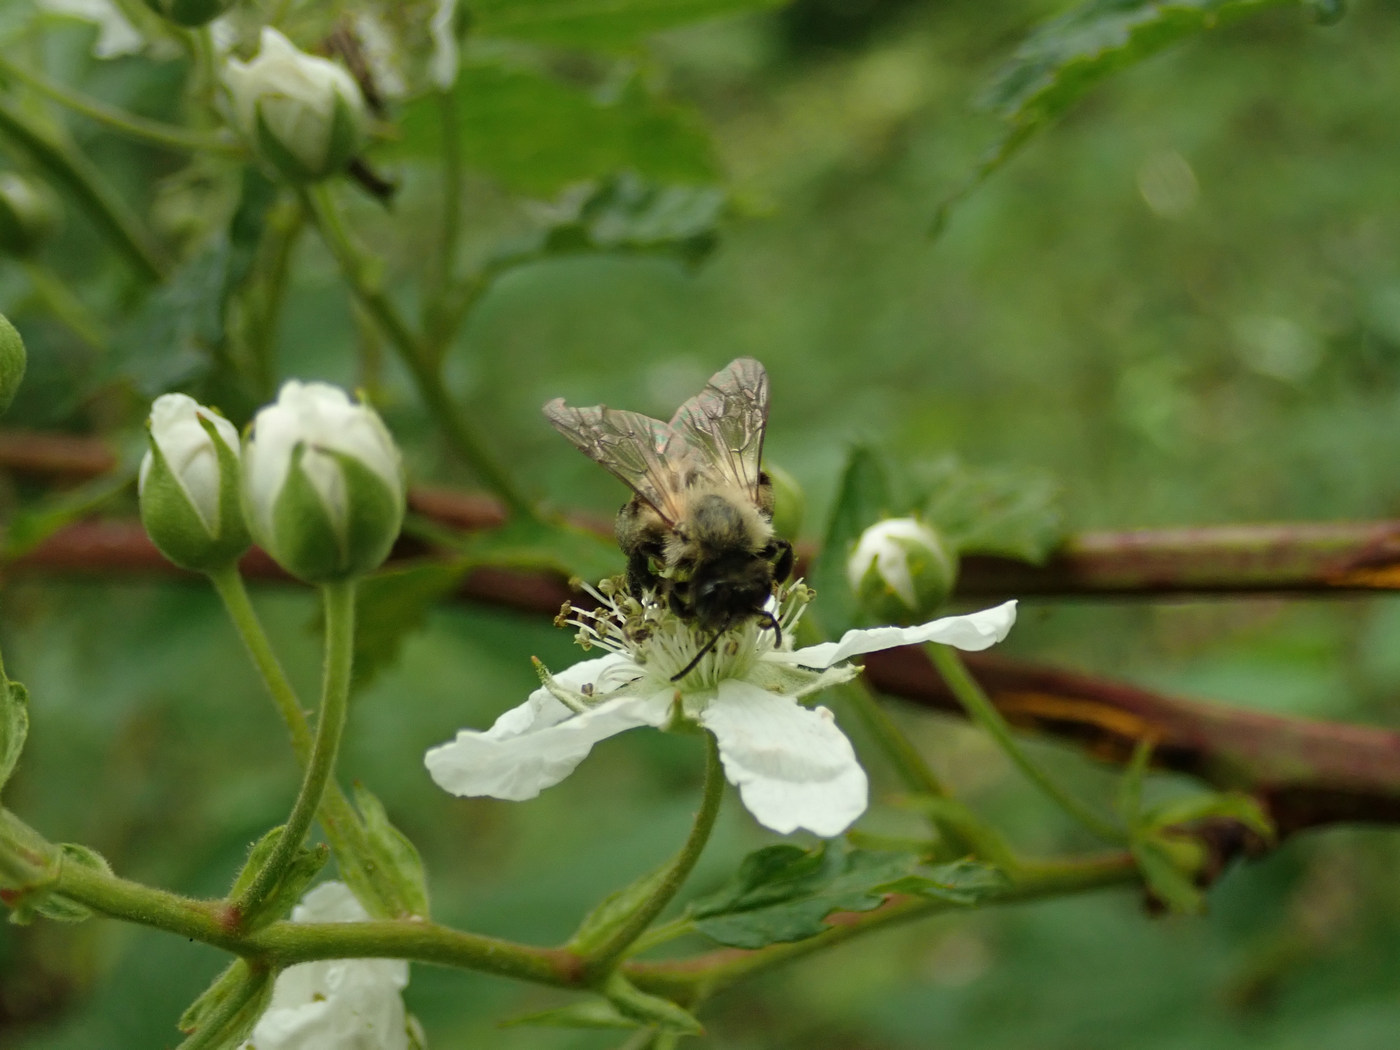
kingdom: Animalia
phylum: Arthropoda
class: Insecta
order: Hymenoptera
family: Andrenidae
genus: Andrena
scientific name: Andrena milwaukeensis
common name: Milwaukee mining bee
